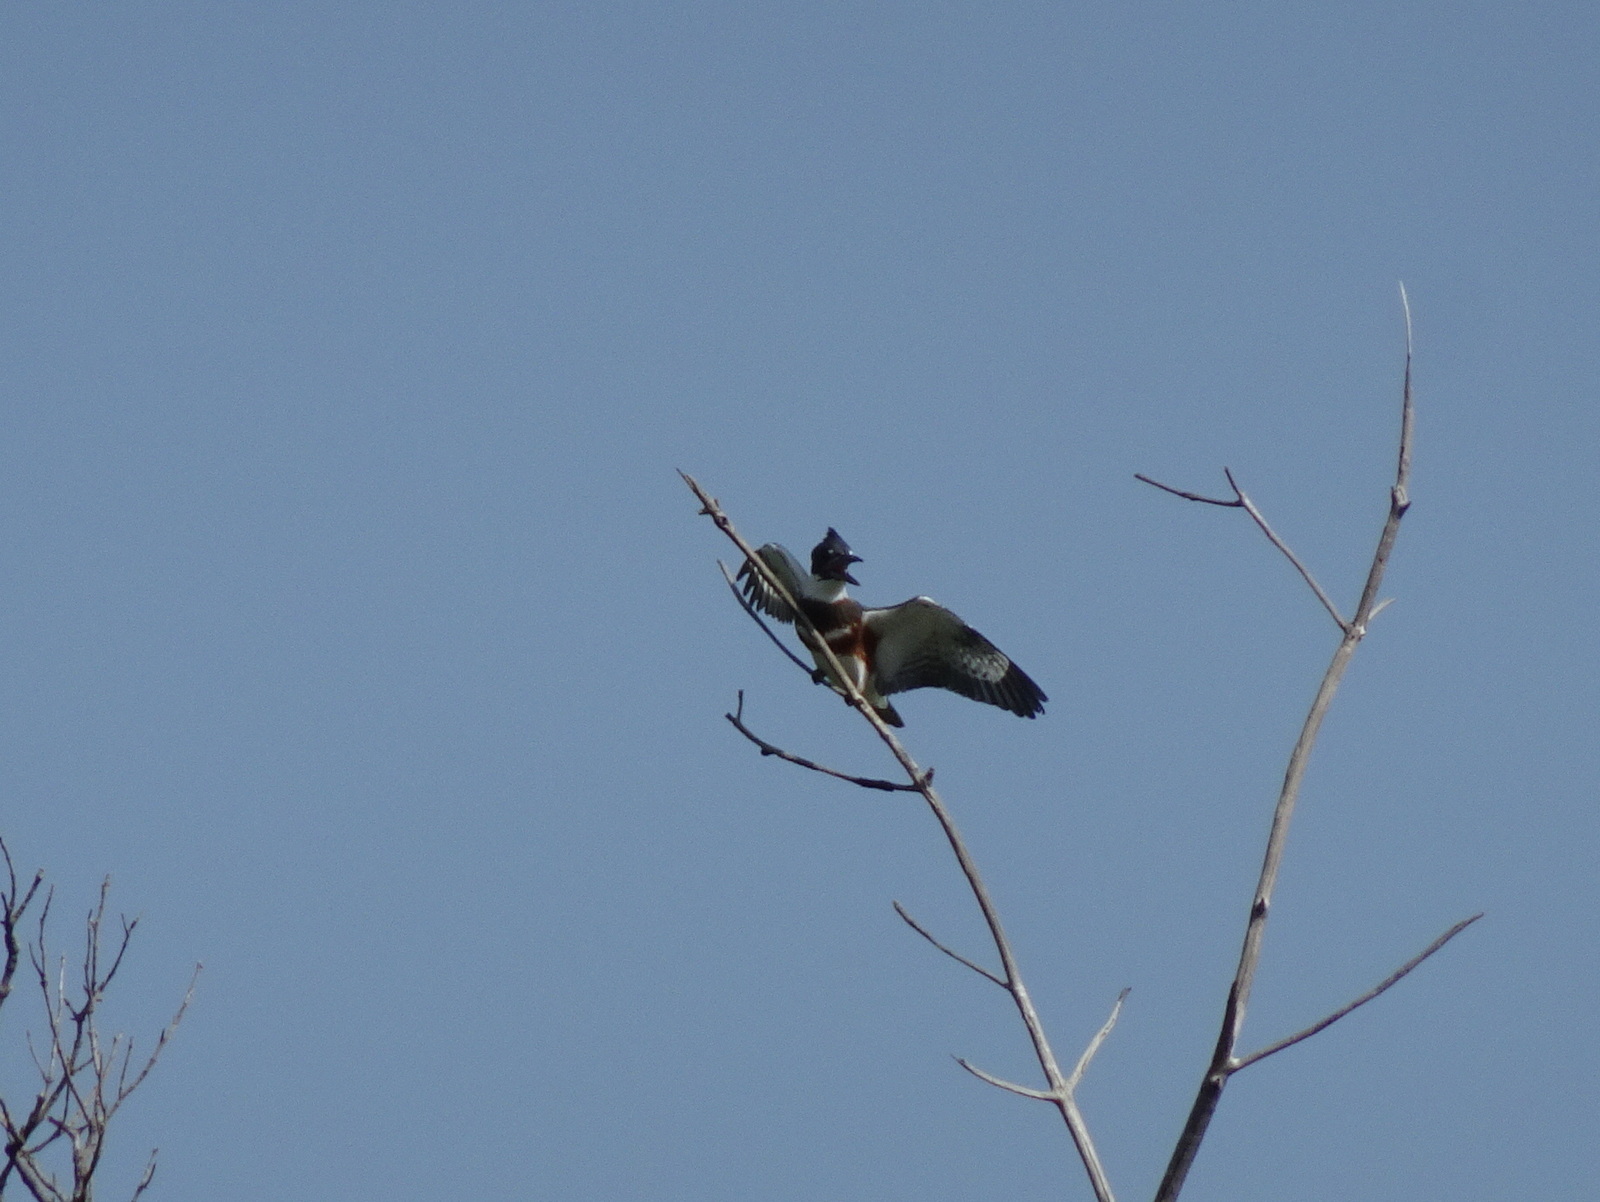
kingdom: Animalia
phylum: Chordata
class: Aves
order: Coraciiformes
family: Alcedinidae
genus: Megaceryle
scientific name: Megaceryle alcyon
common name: Belted kingfisher
